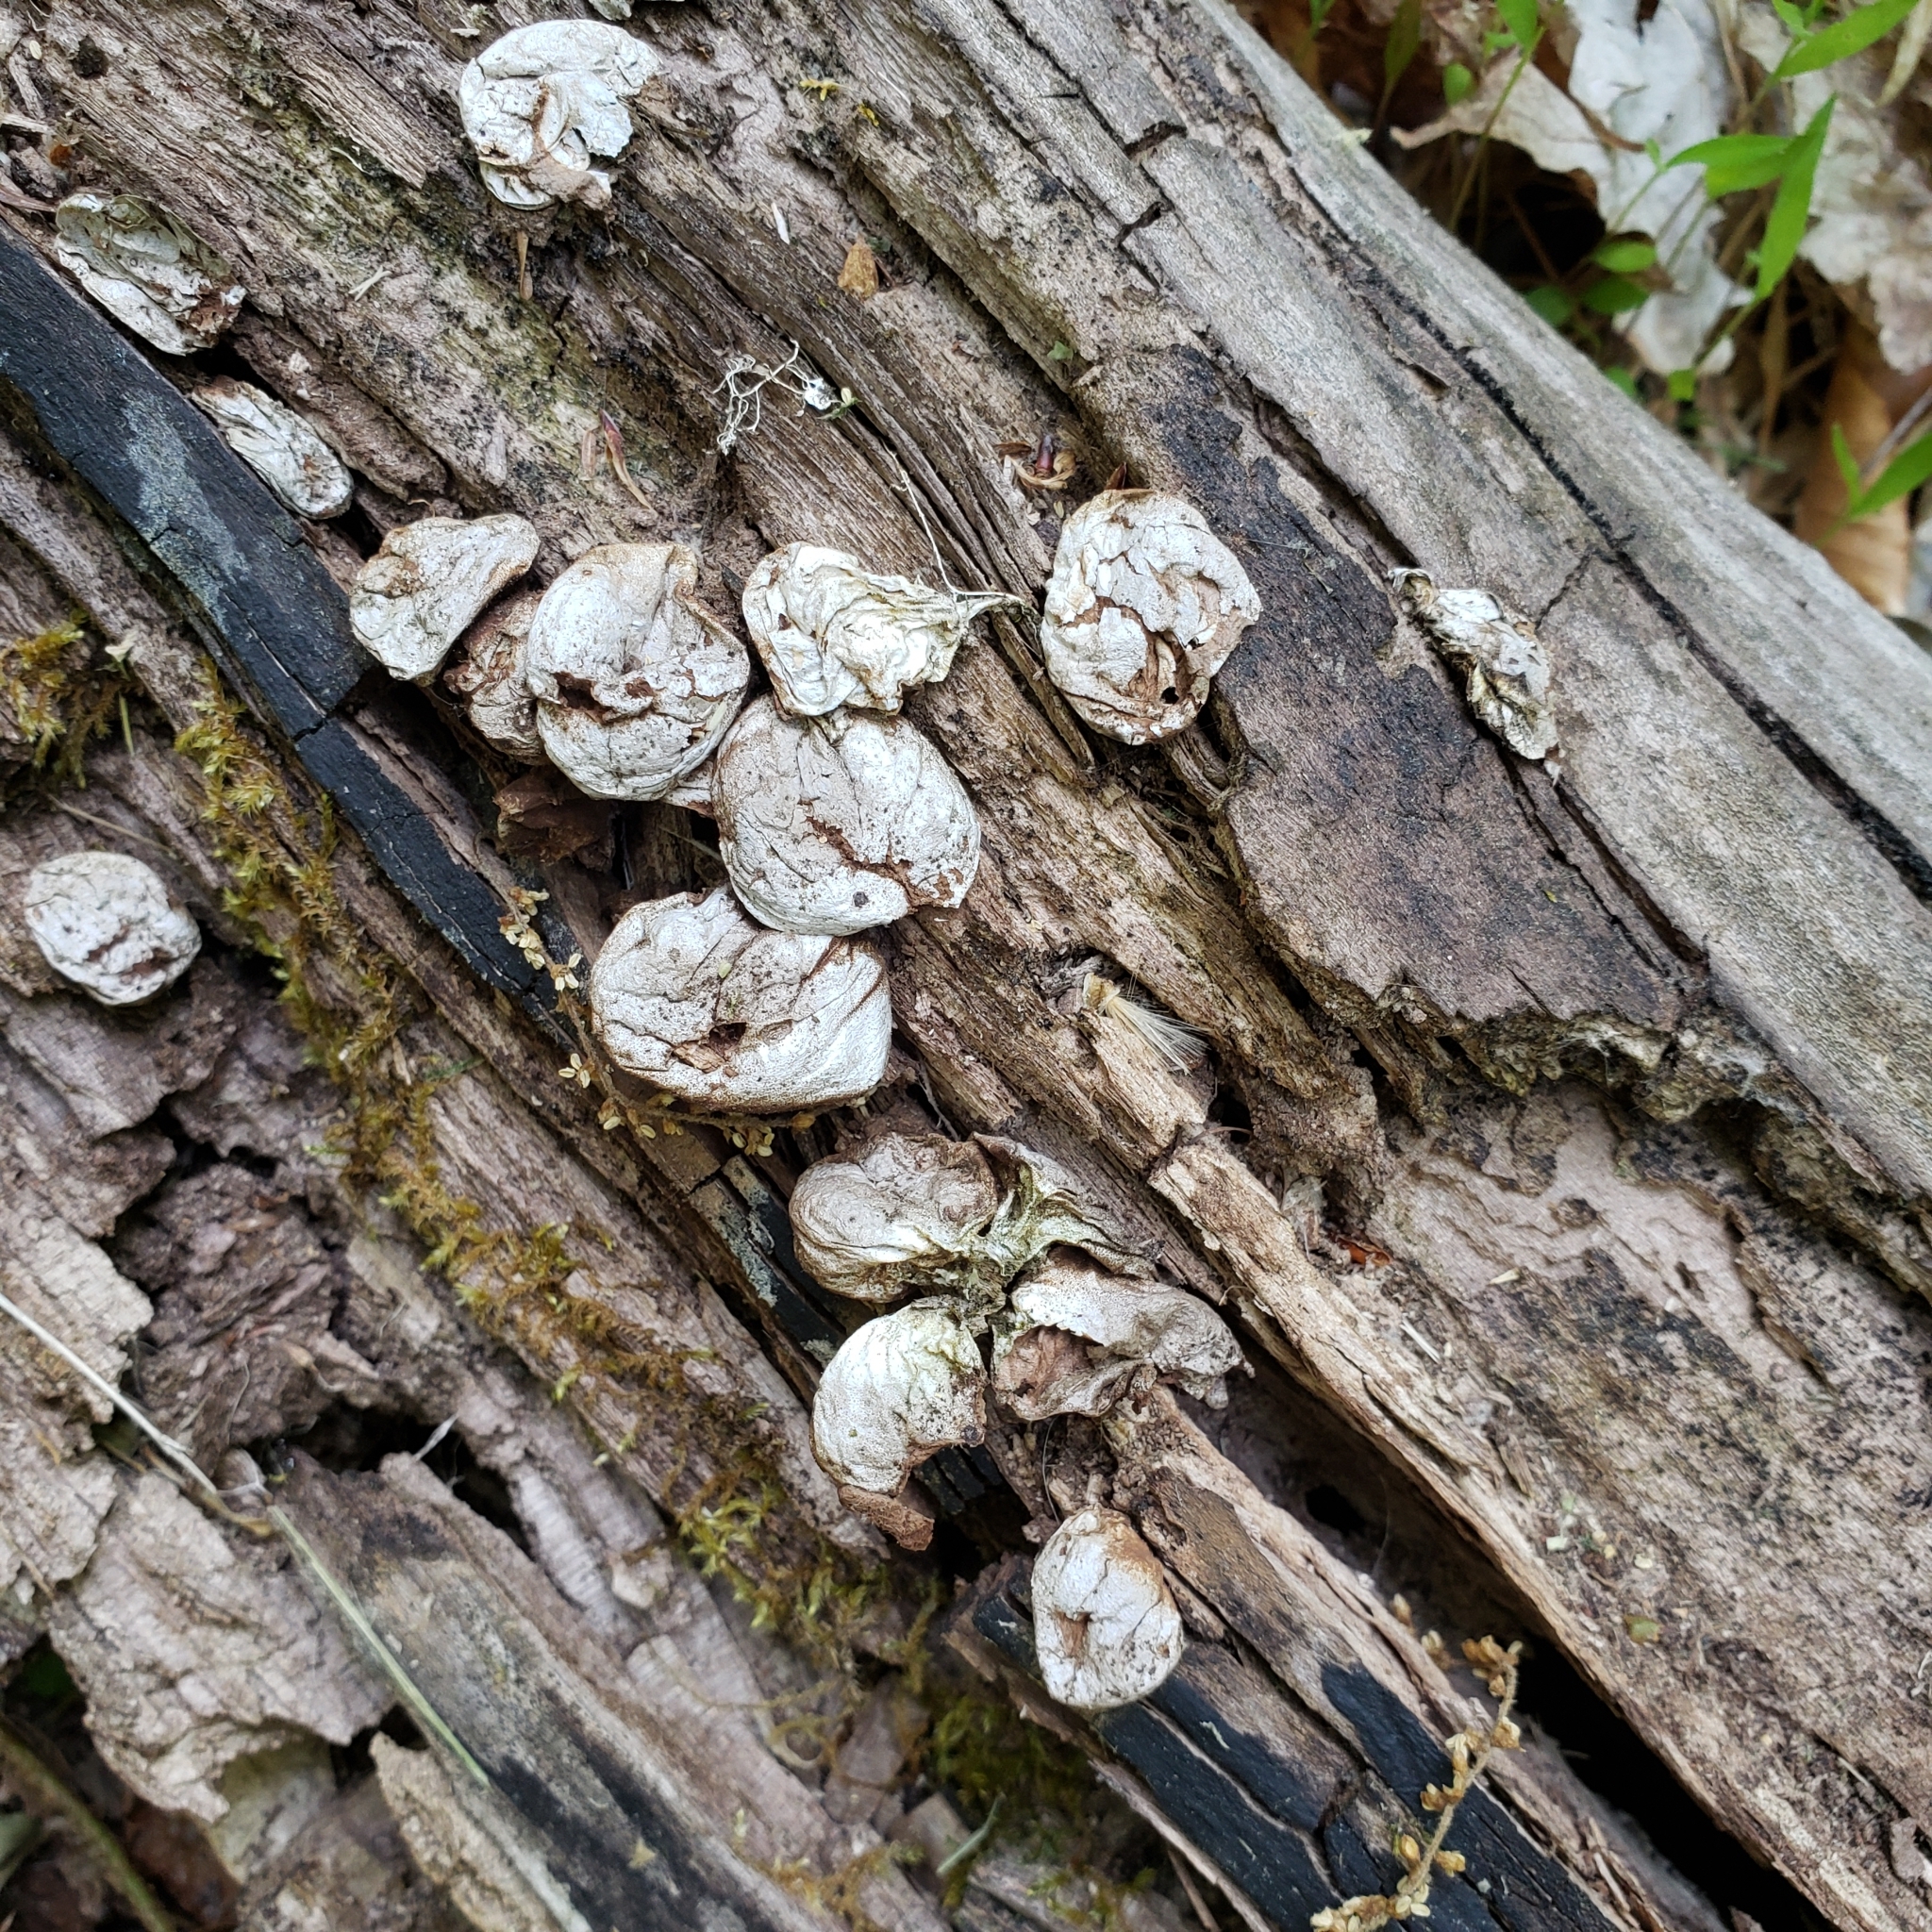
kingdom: Fungi
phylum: Basidiomycota
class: Agaricomycetes
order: Agaricales
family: Lycoperdaceae
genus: Apioperdon
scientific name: Apioperdon pyriforme
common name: Pear-shaped puffball
